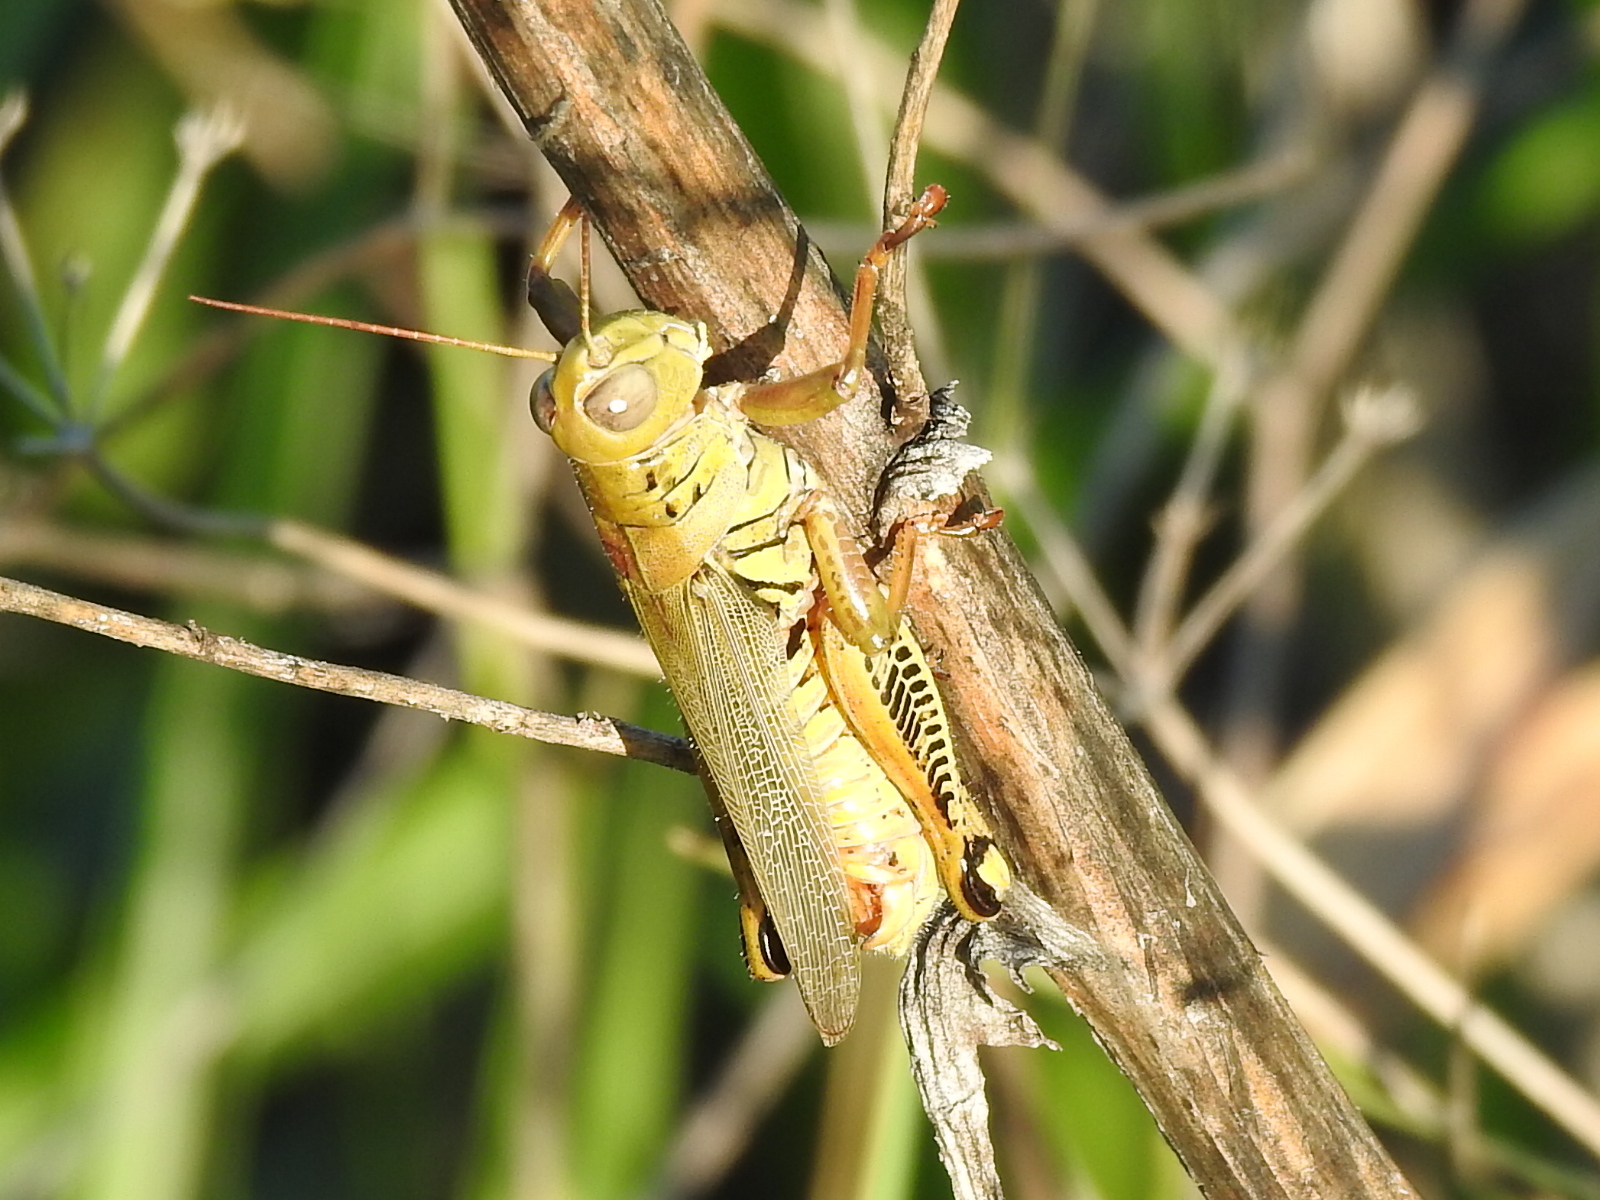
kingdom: Animalia
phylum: Arthropoda
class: Insecta
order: Orthoptera
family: Acrididae
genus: Melanoplus
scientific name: Melanoplus differentialis
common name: Differential grasshopper
